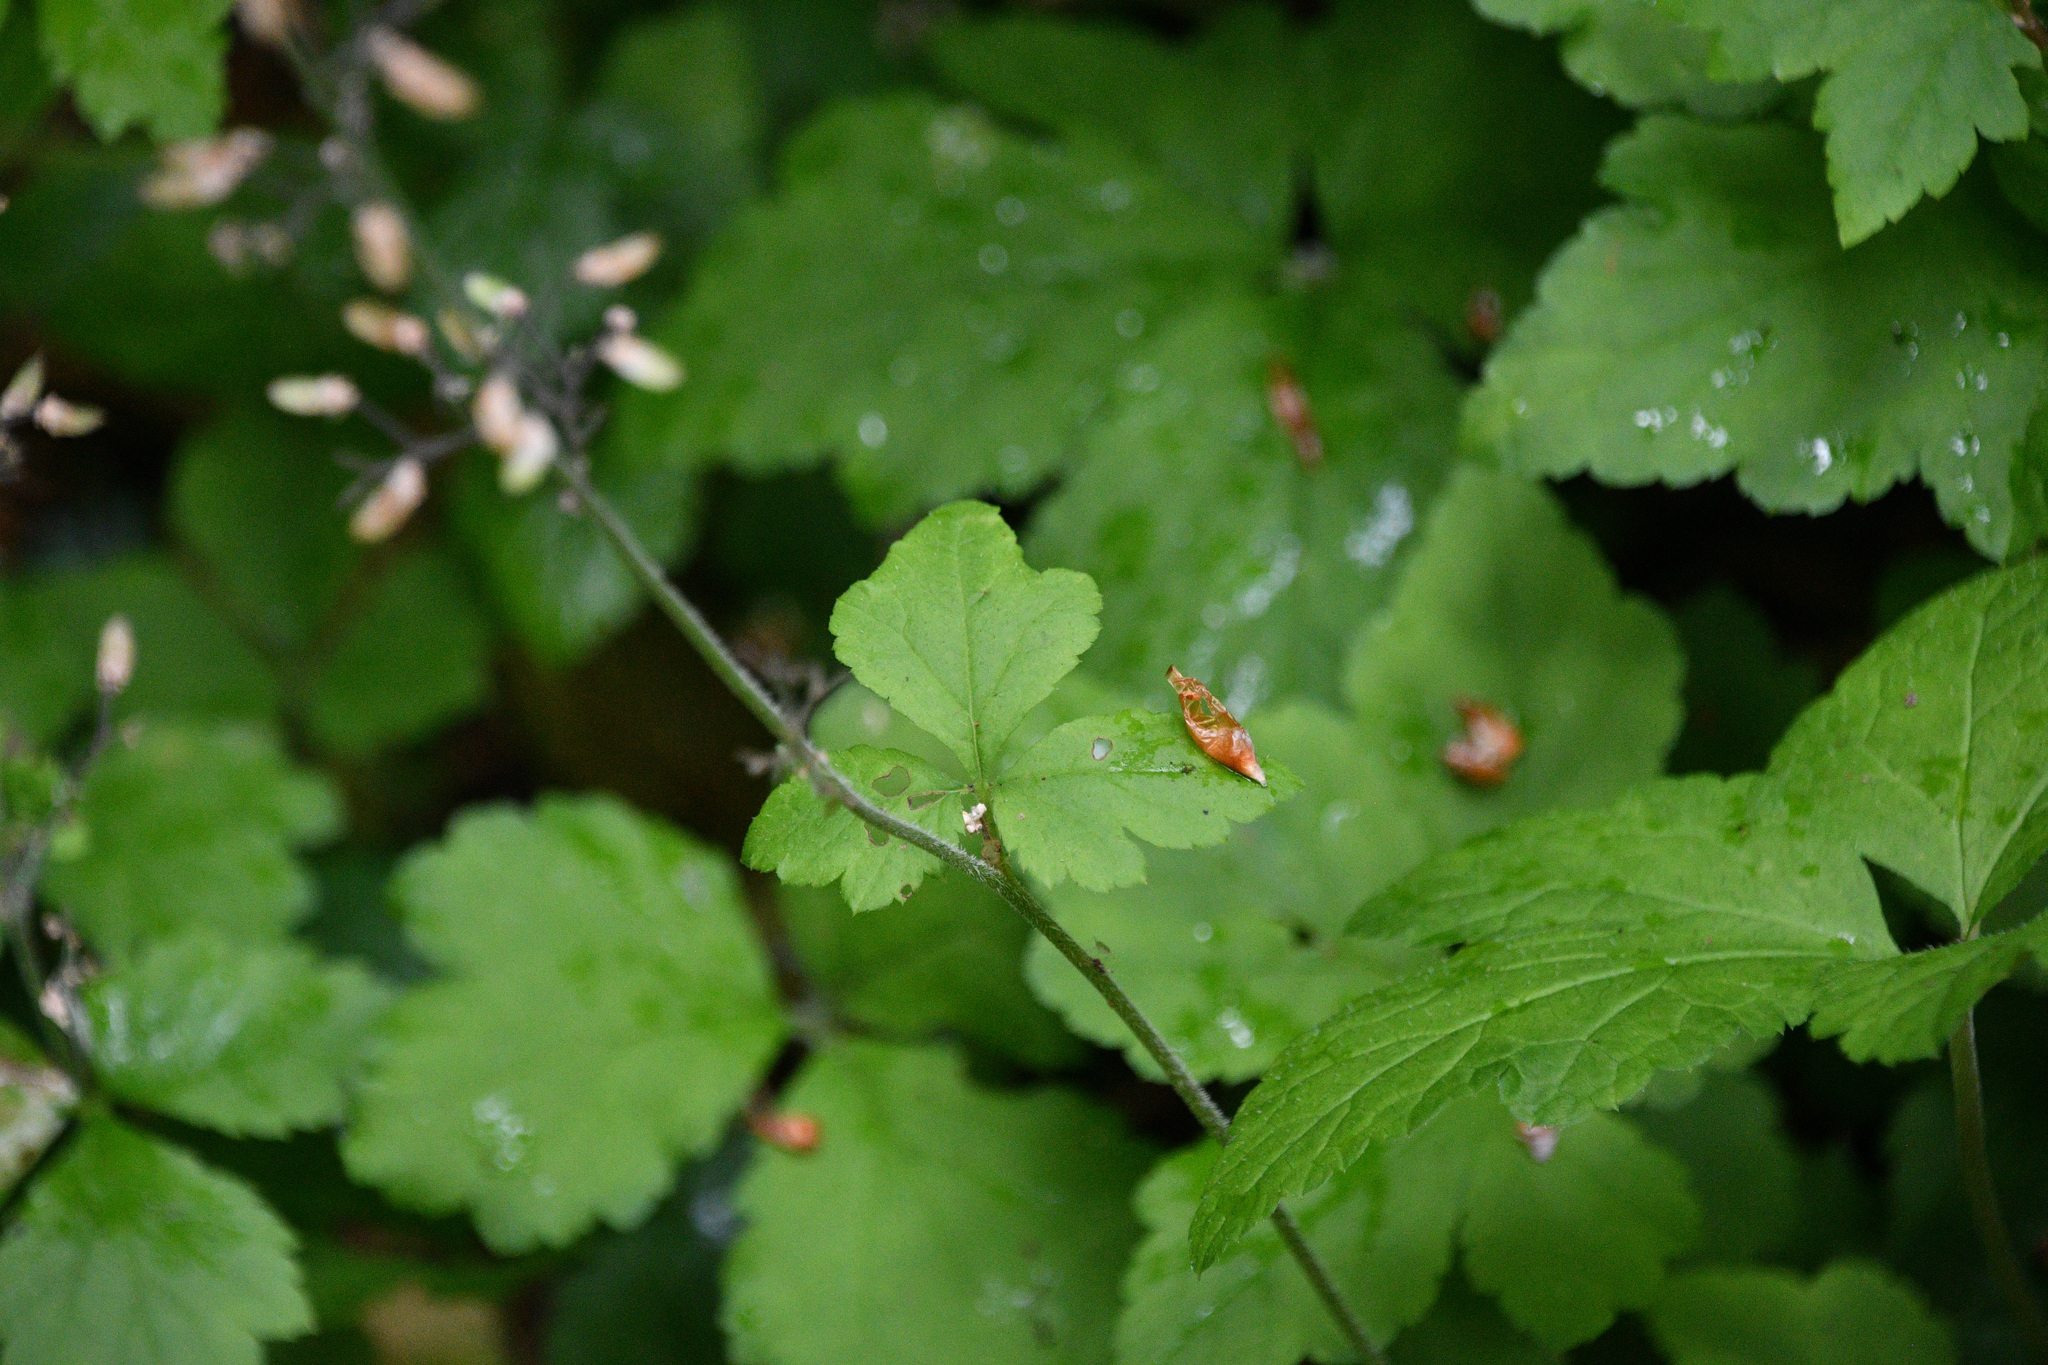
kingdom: Plantae
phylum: Tracheophyta
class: Magnoliopsida
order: Saxifragales
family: Saxifragaceae
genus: Tiarella
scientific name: Tiarella trifoliata
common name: Sugar-scoop
